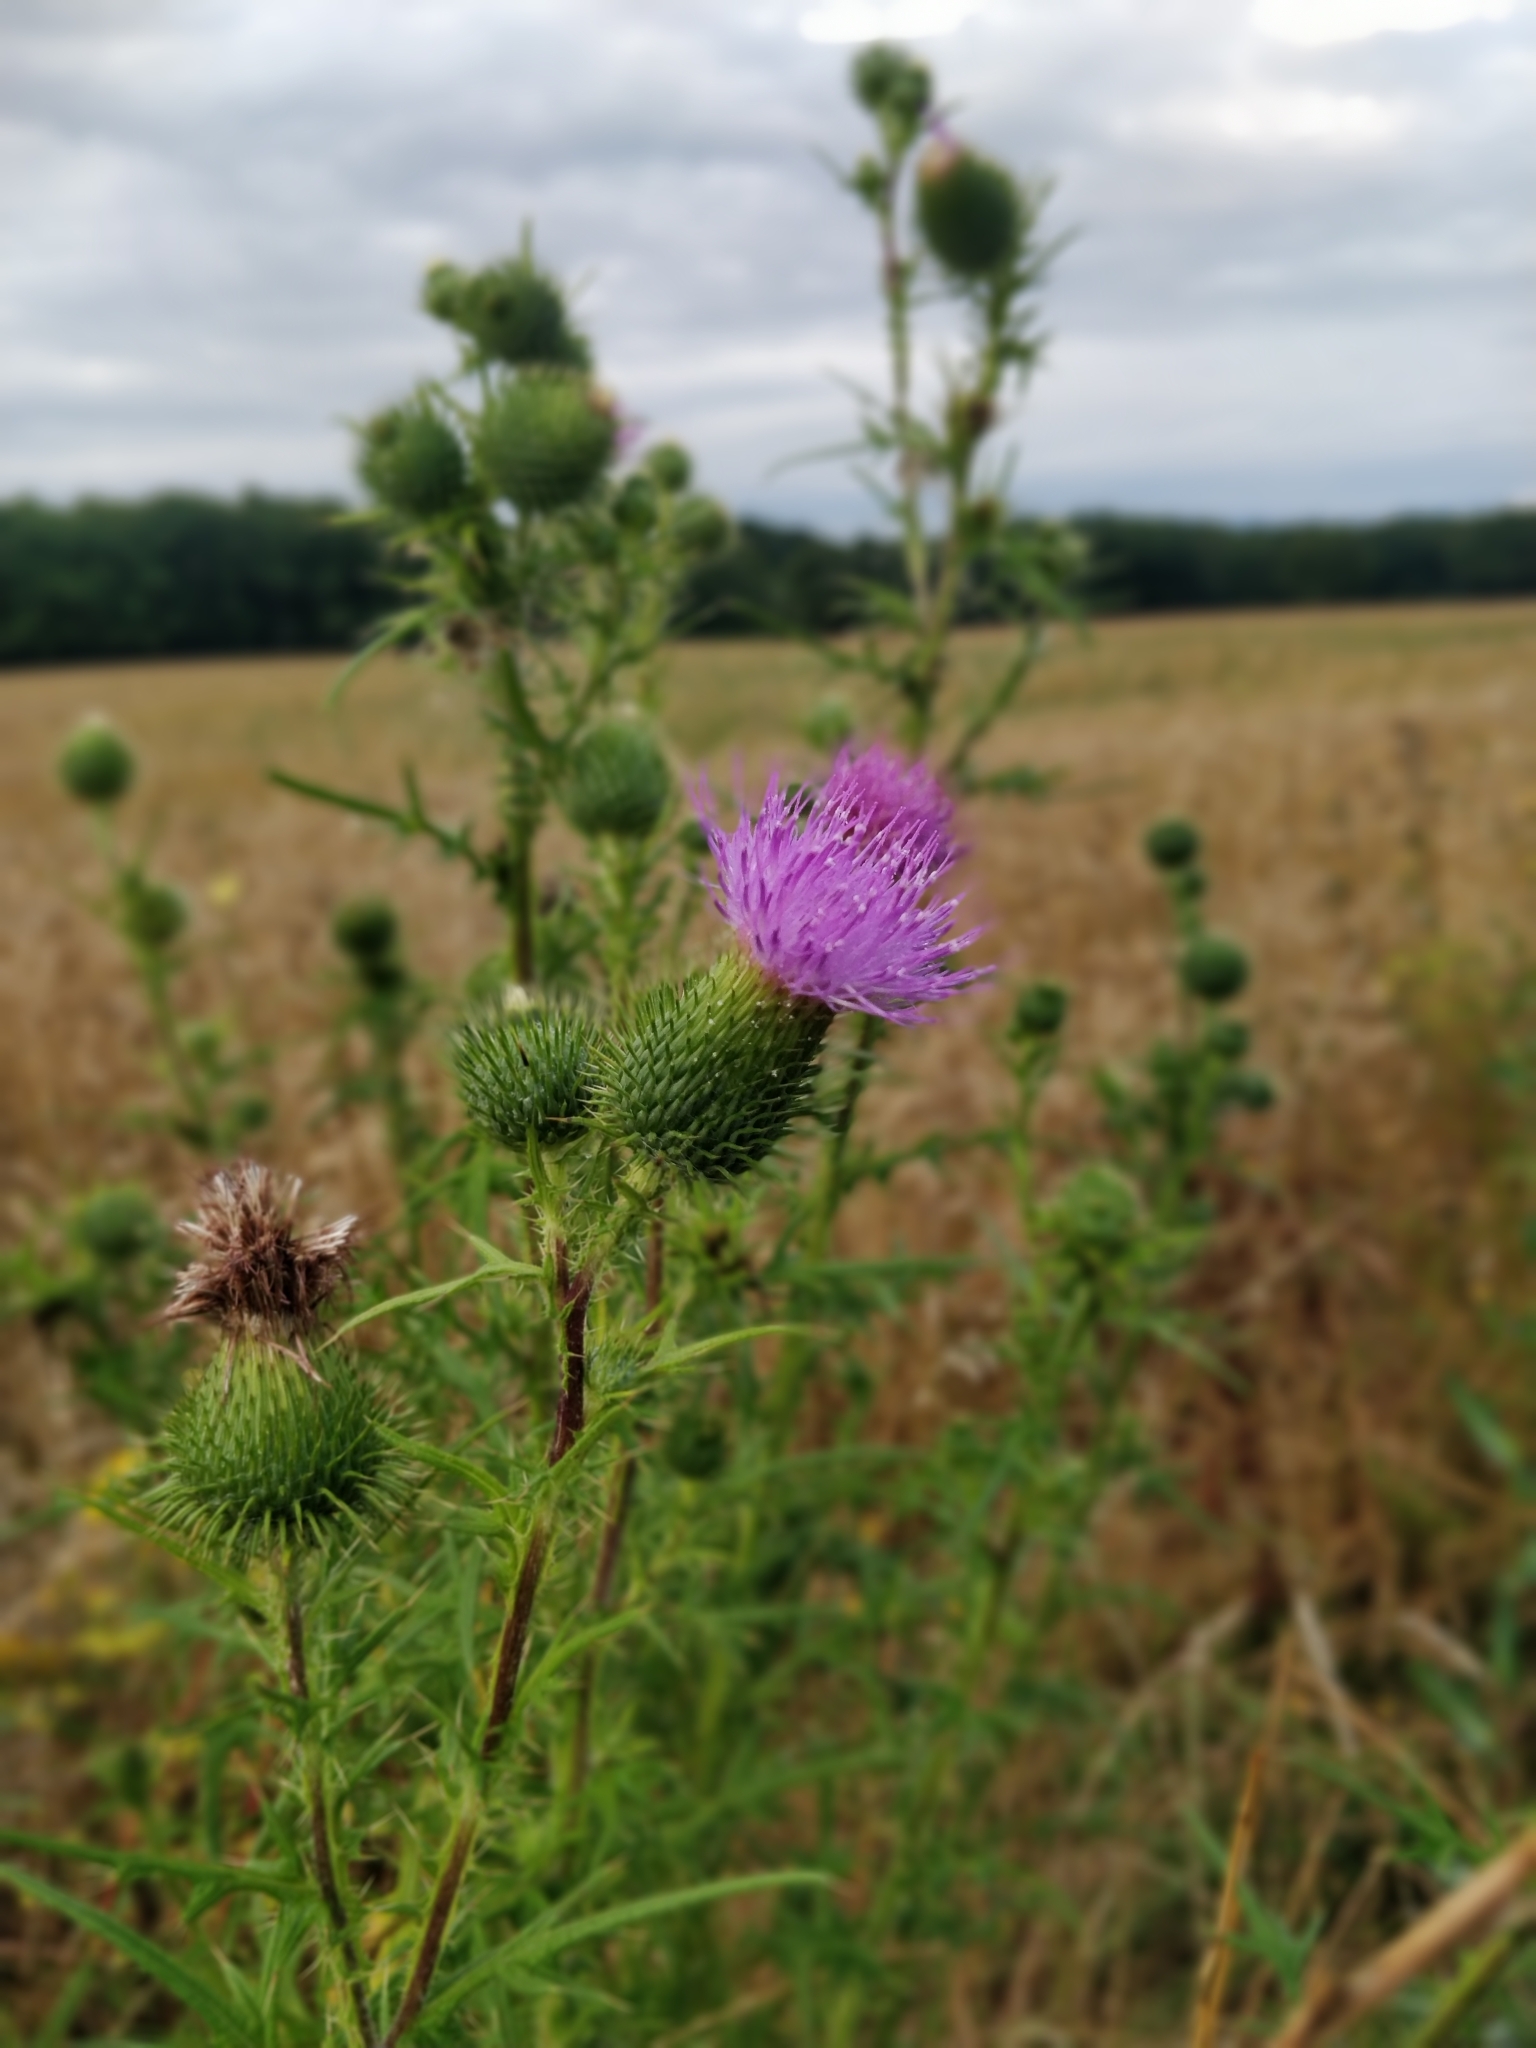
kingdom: Plantae
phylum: Tracheophyta
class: Magnoliopsida
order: Asterales
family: Asteraceae
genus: Cirsium
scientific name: Cirsium vulgare
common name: Bull thistle
